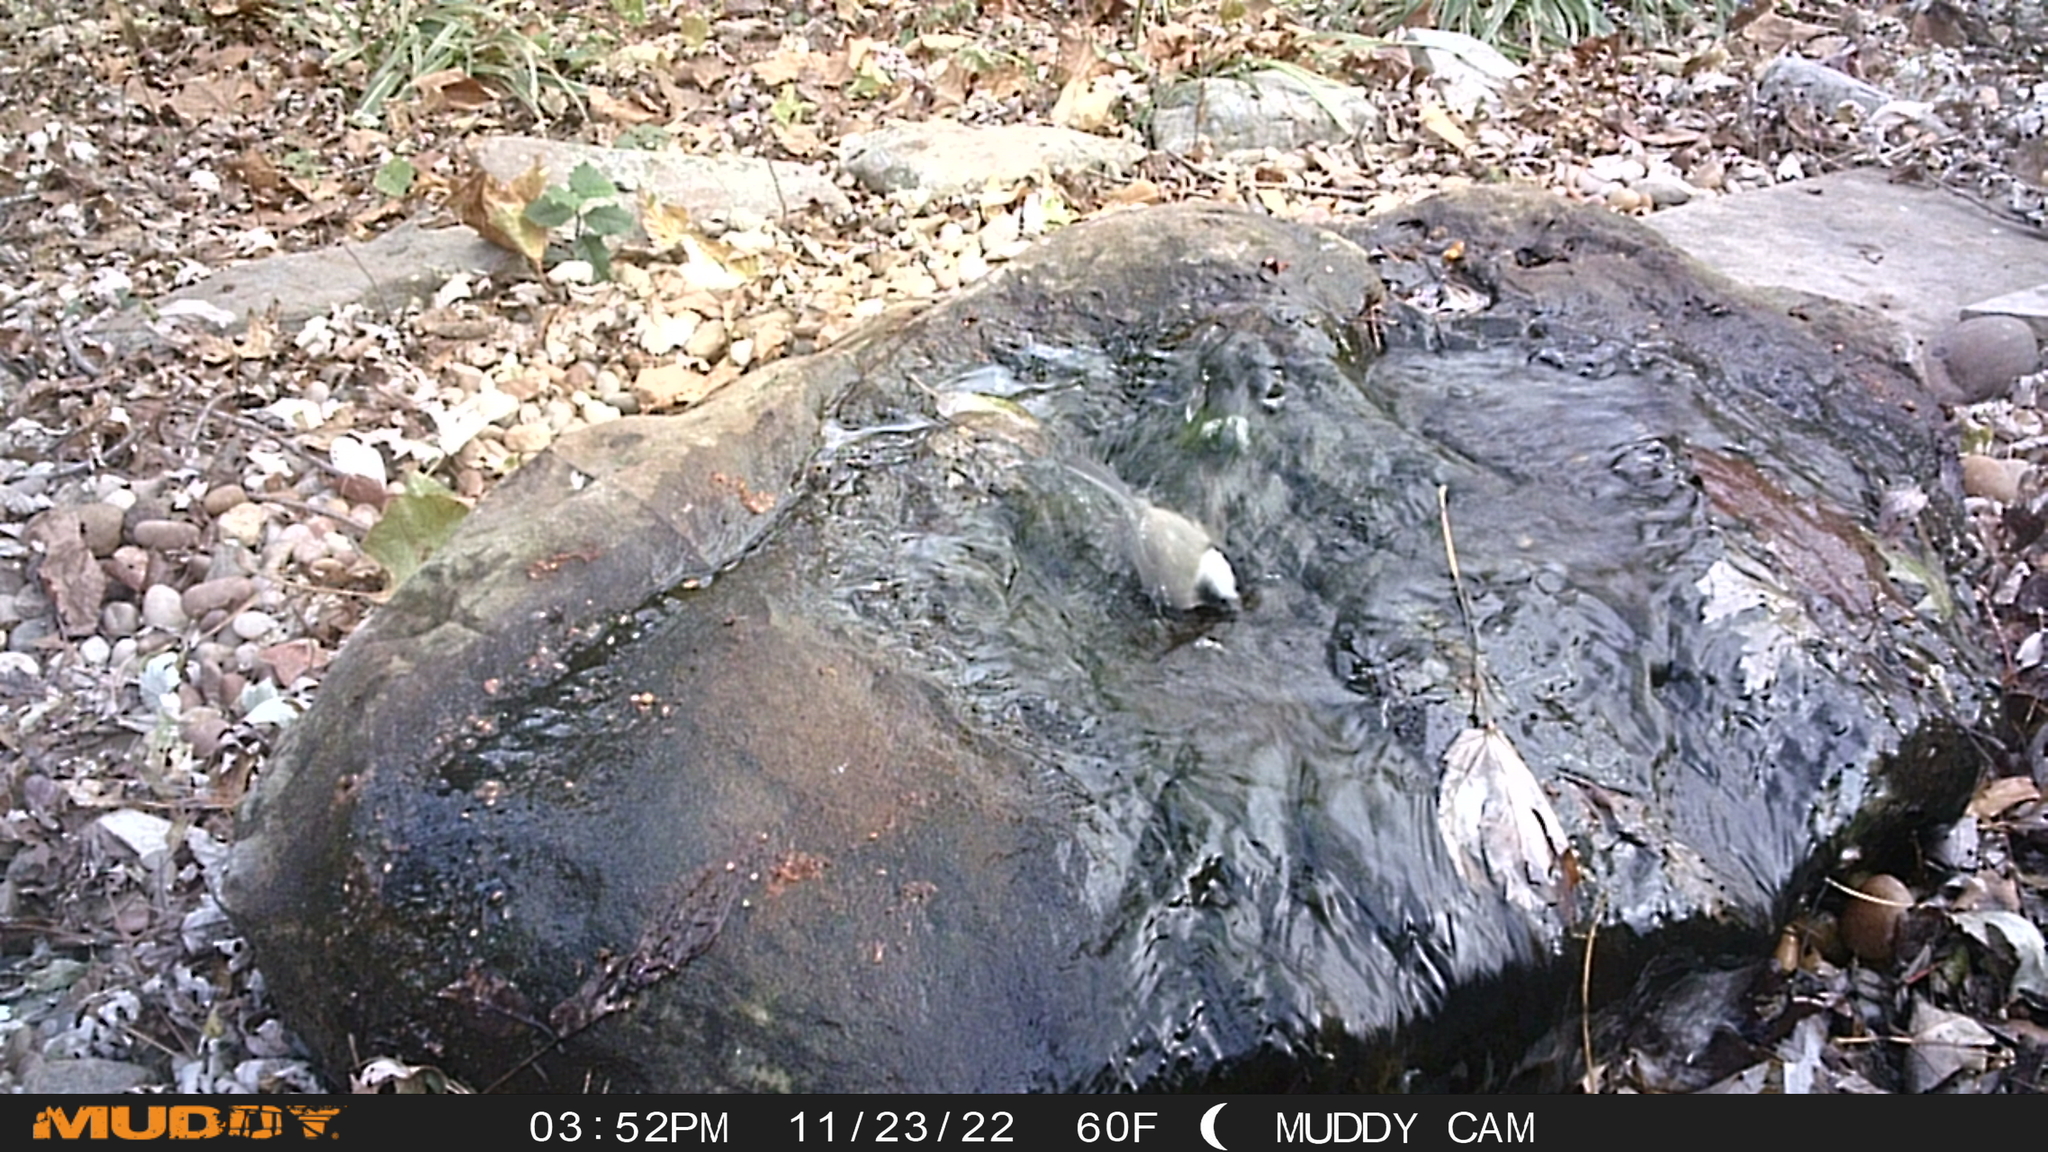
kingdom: Animalia
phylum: Chordata
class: Aves
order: Passeriformes
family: Paridae
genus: Poecile
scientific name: Poecile carolinensis
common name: Carolina chickadee
